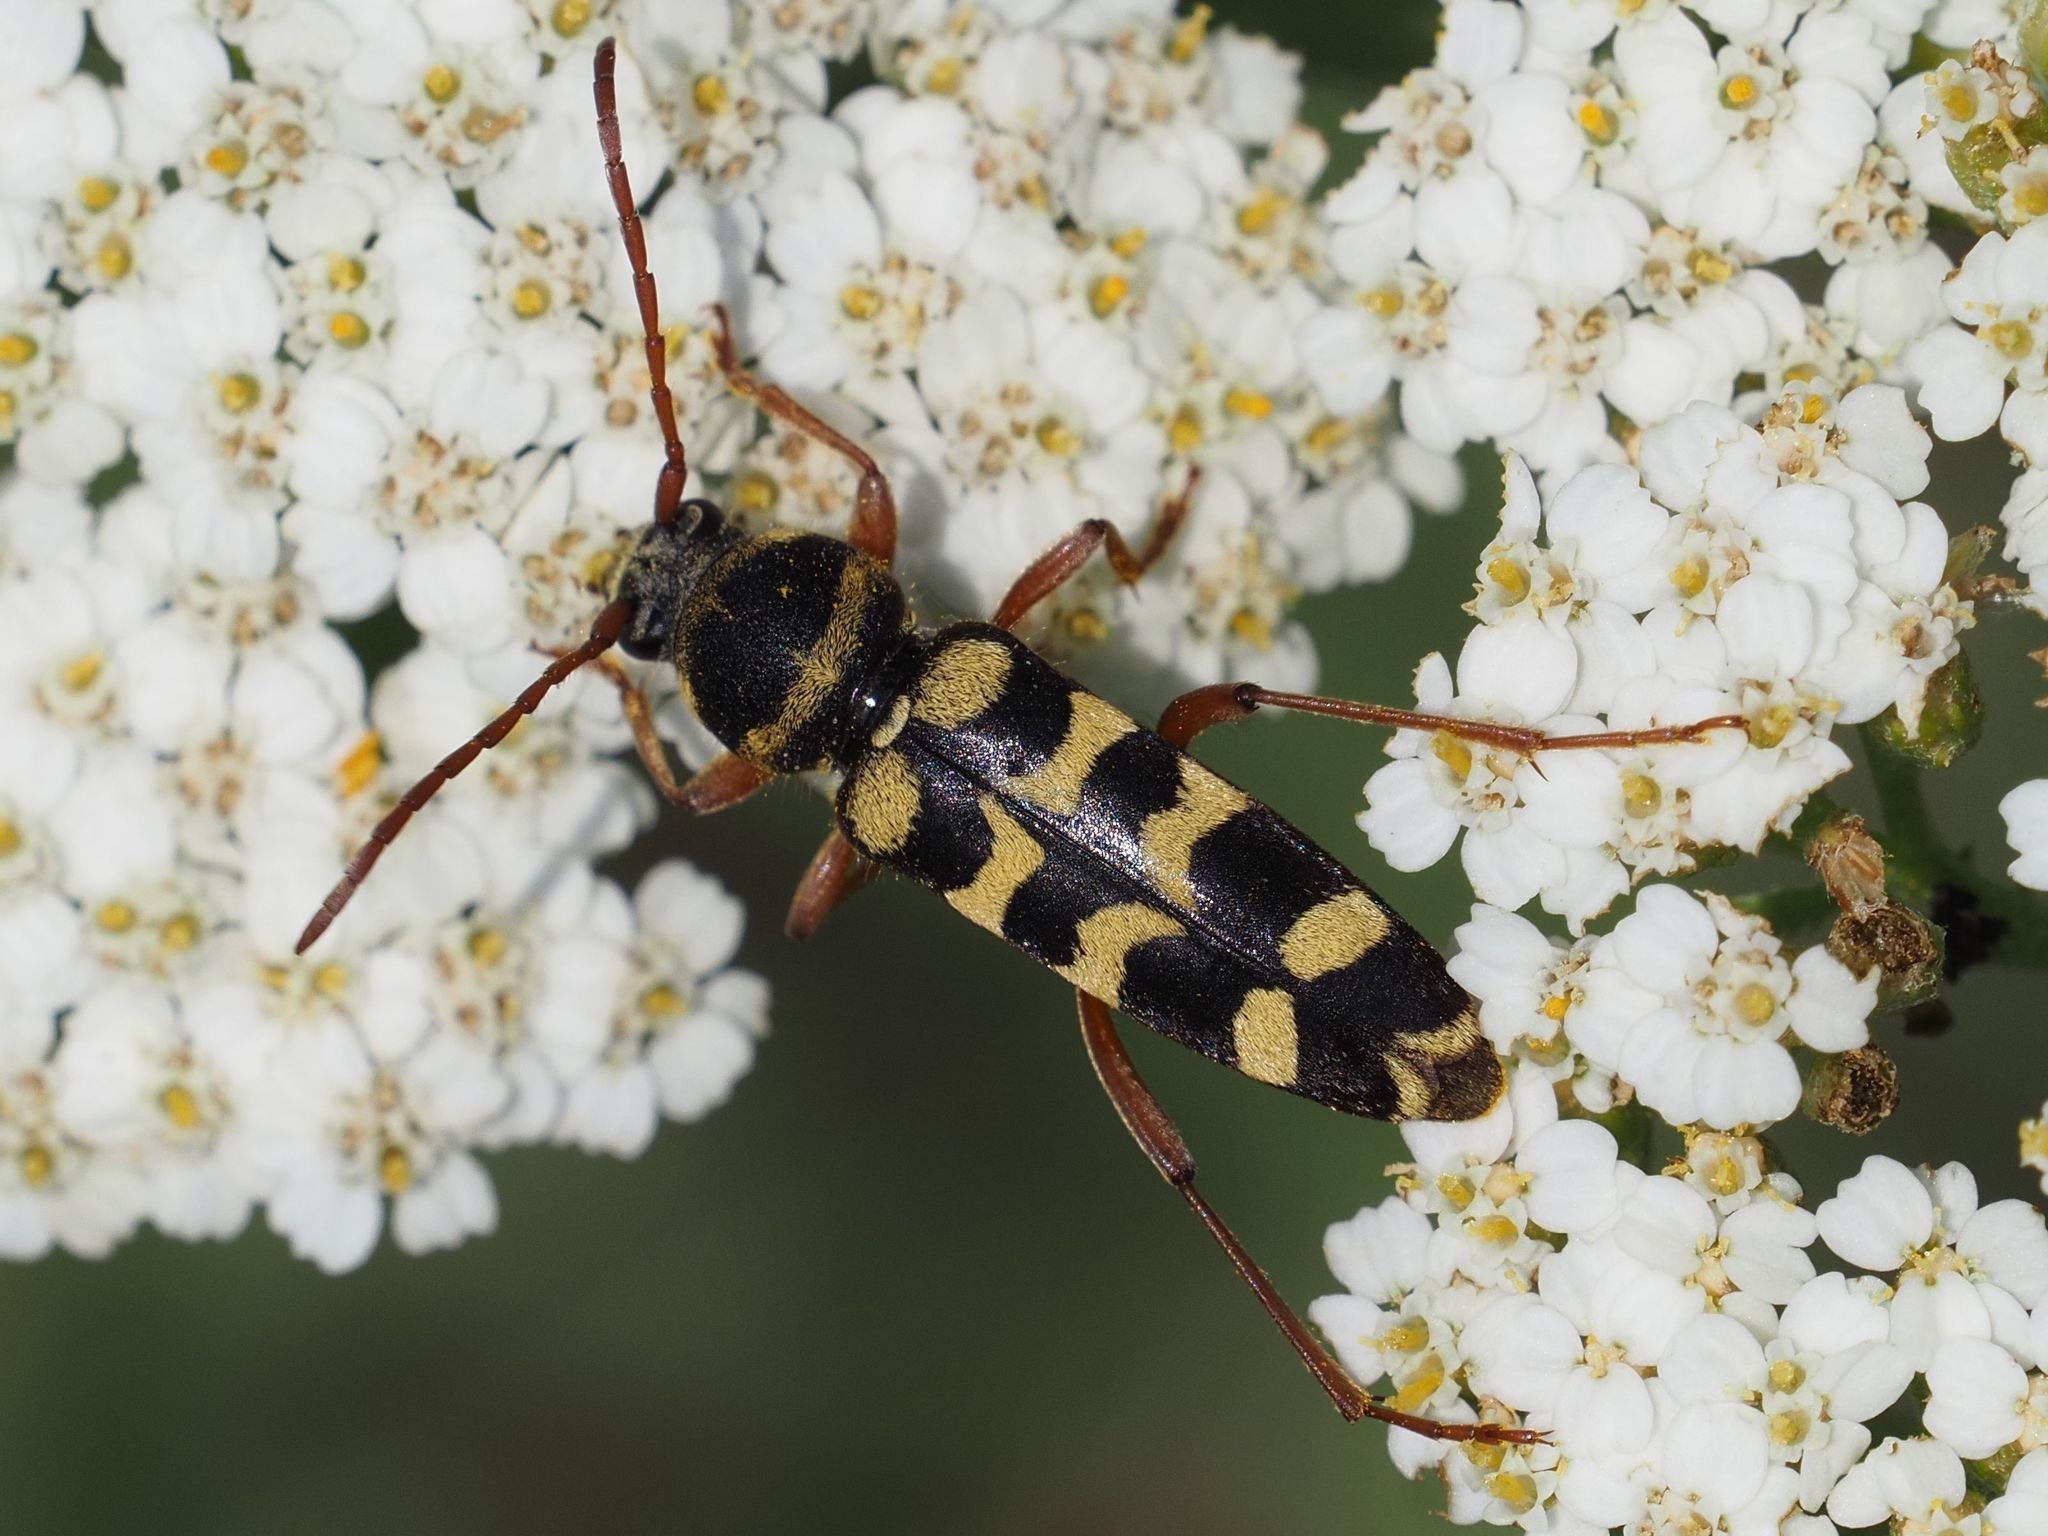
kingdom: Animalia
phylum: Arthropoda
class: Insecta
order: Coleoptera
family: Cerambycidae
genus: Plagionotus
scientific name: Plagionotus floralis
